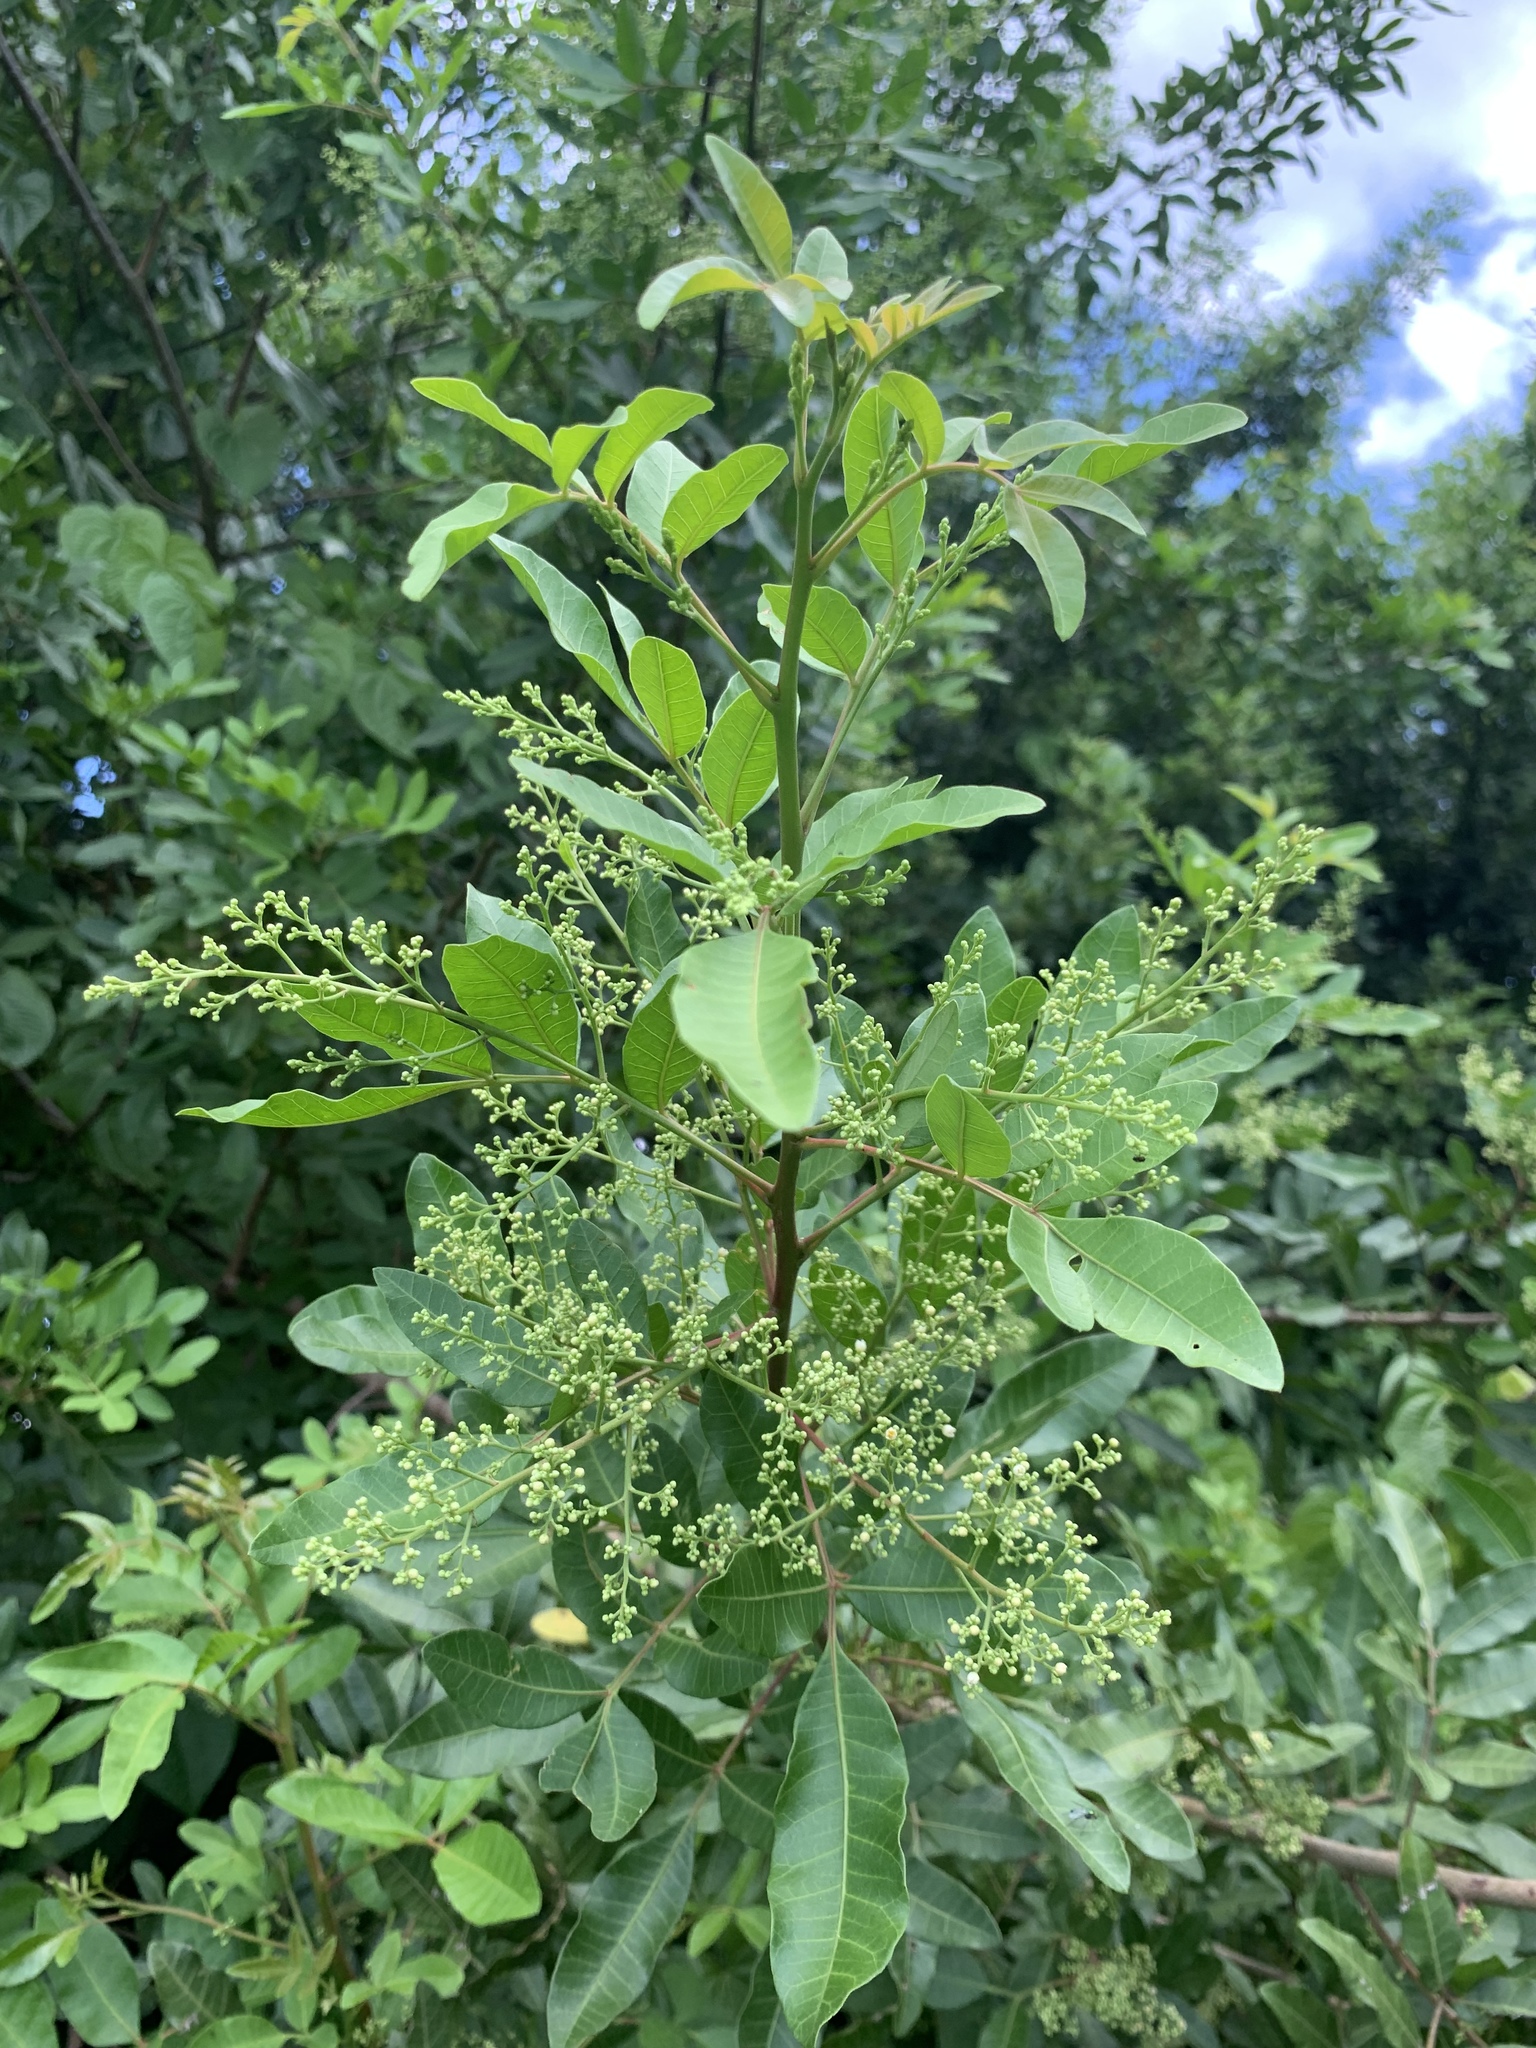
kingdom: Plantae
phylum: Tracheophyta
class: Magnoliopsida
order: Sapindales
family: Anacardiaceae
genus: Schinus
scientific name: Schinus terebinthifolia
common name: Brazilian peppertree
